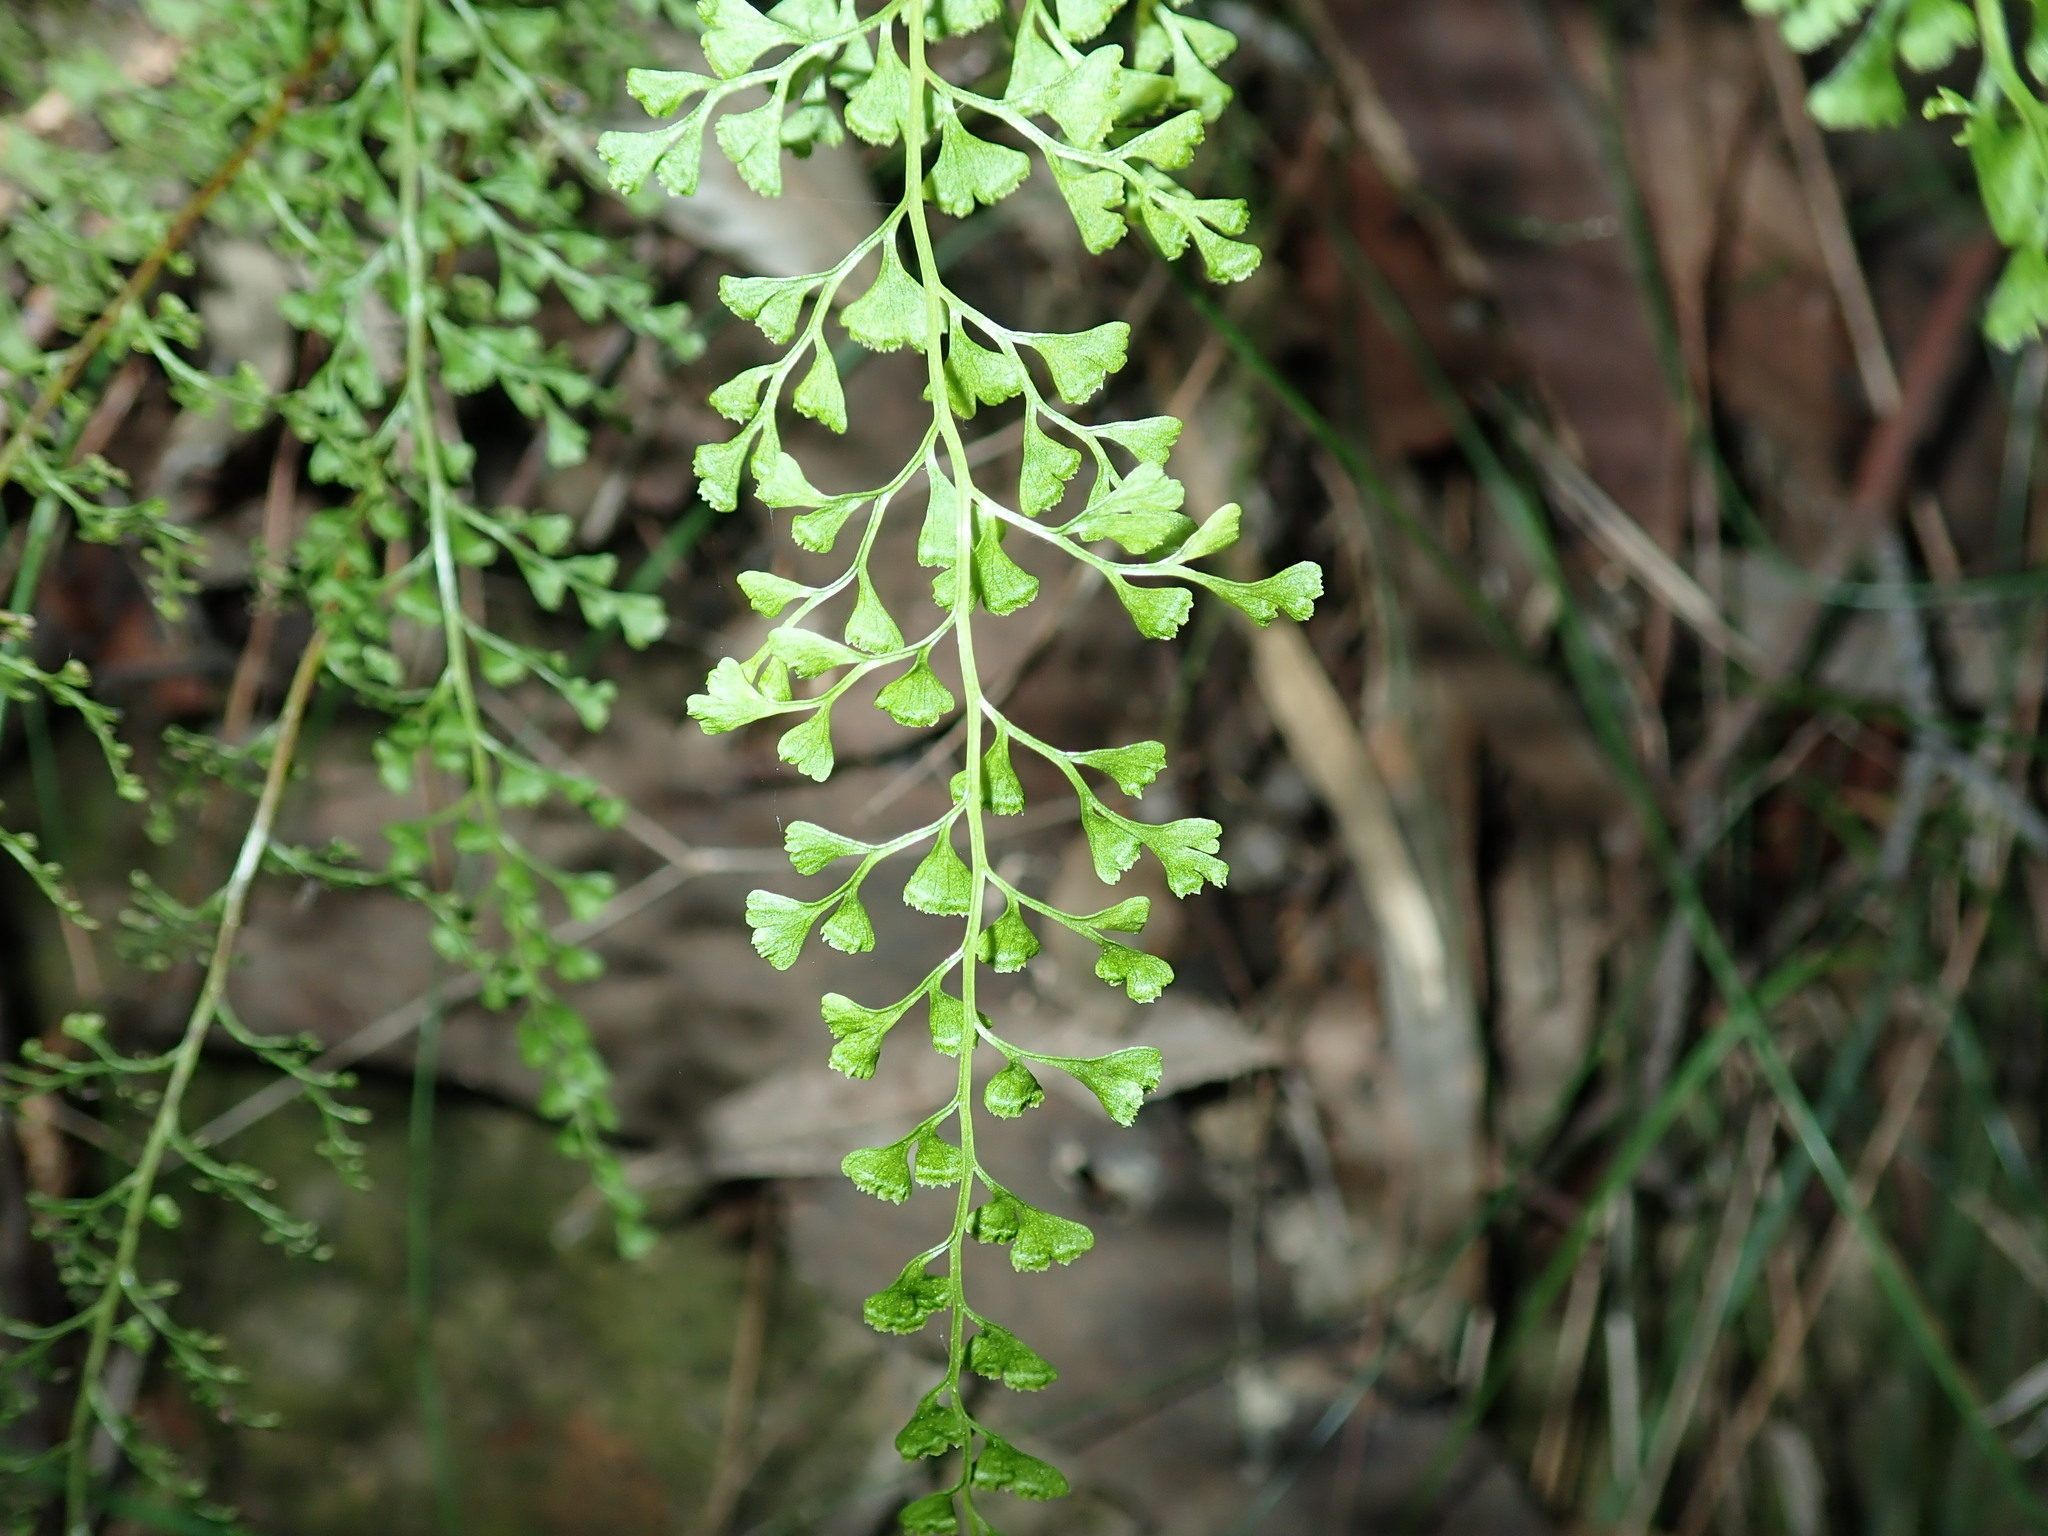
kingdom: Plantae
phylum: Tracheophyta
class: Polypodiopsida
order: Polypodiales
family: Lindsaeaceae
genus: Lindsaea
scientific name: Lindsaea microphylla
